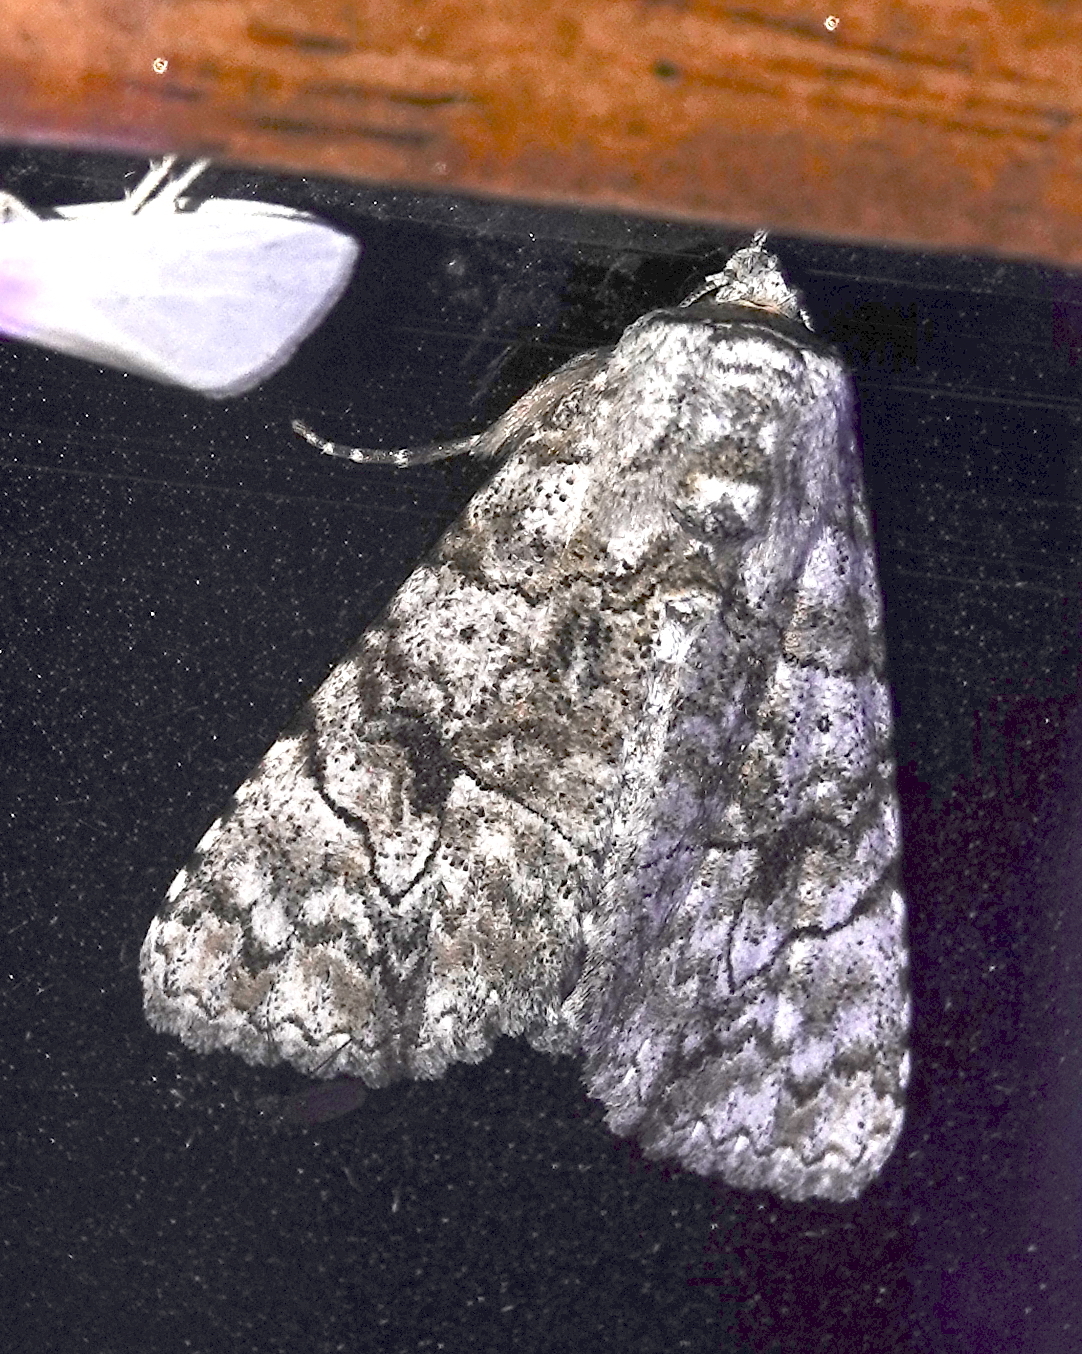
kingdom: Animalia
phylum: Arthropoda
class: Insecta
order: Lepidoptera
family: Erebidae
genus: Orodesma
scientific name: Orodesma ameria
